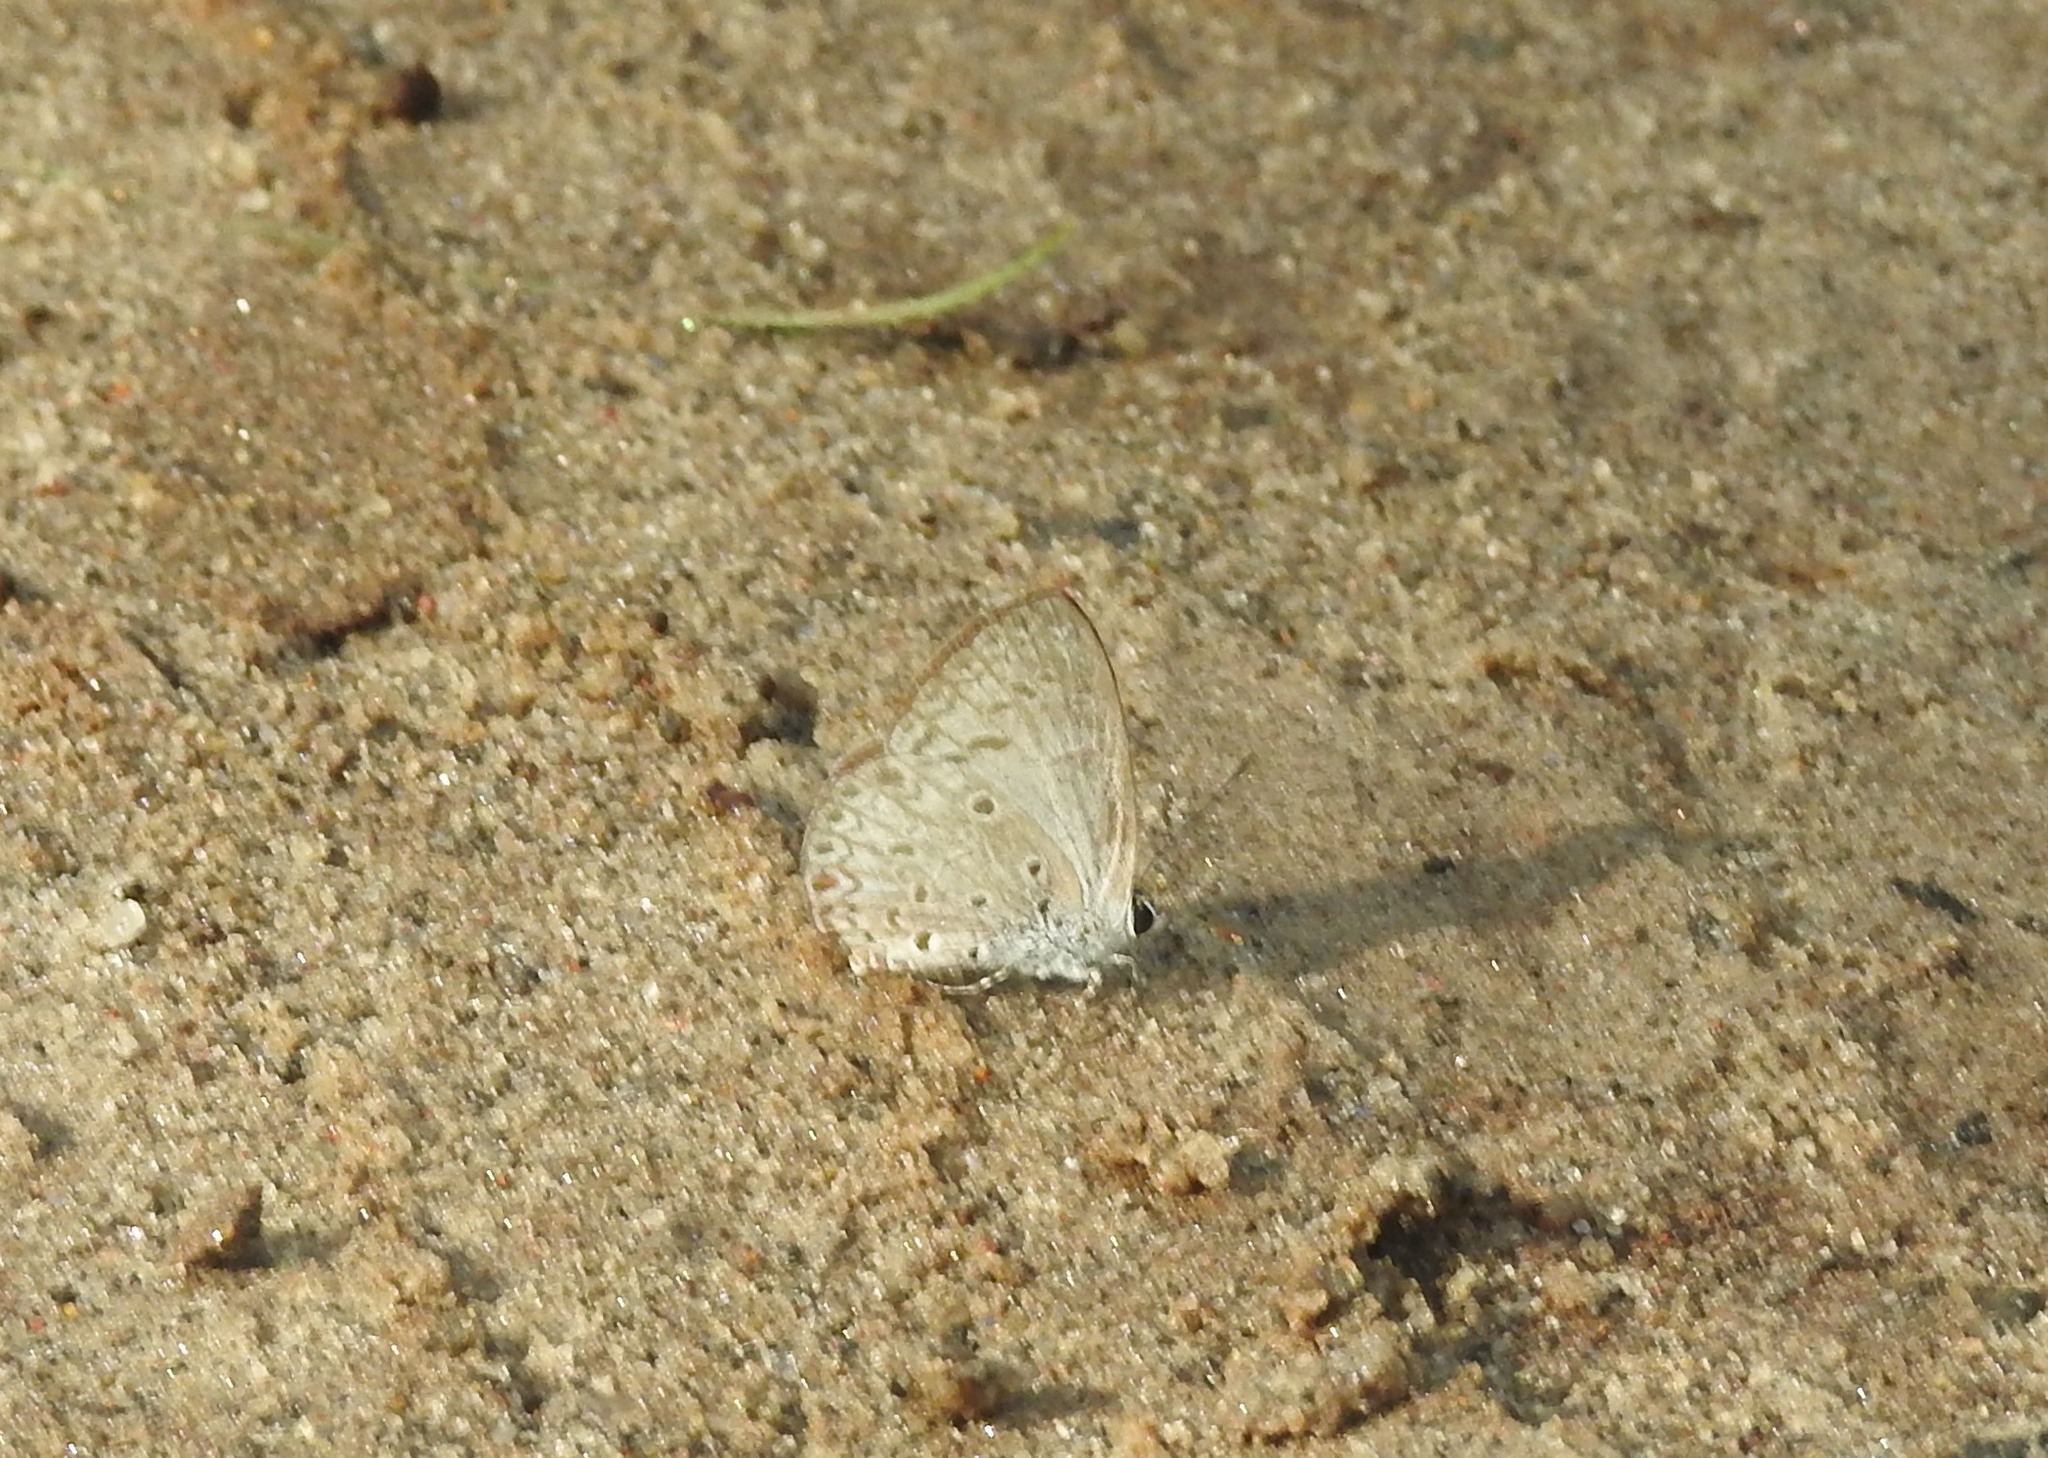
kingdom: Animalia
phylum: Arthropoda
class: Insecta
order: Lepidoptera
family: Lycaenidae
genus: Acytolepis
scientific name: Acytolepis puspa
